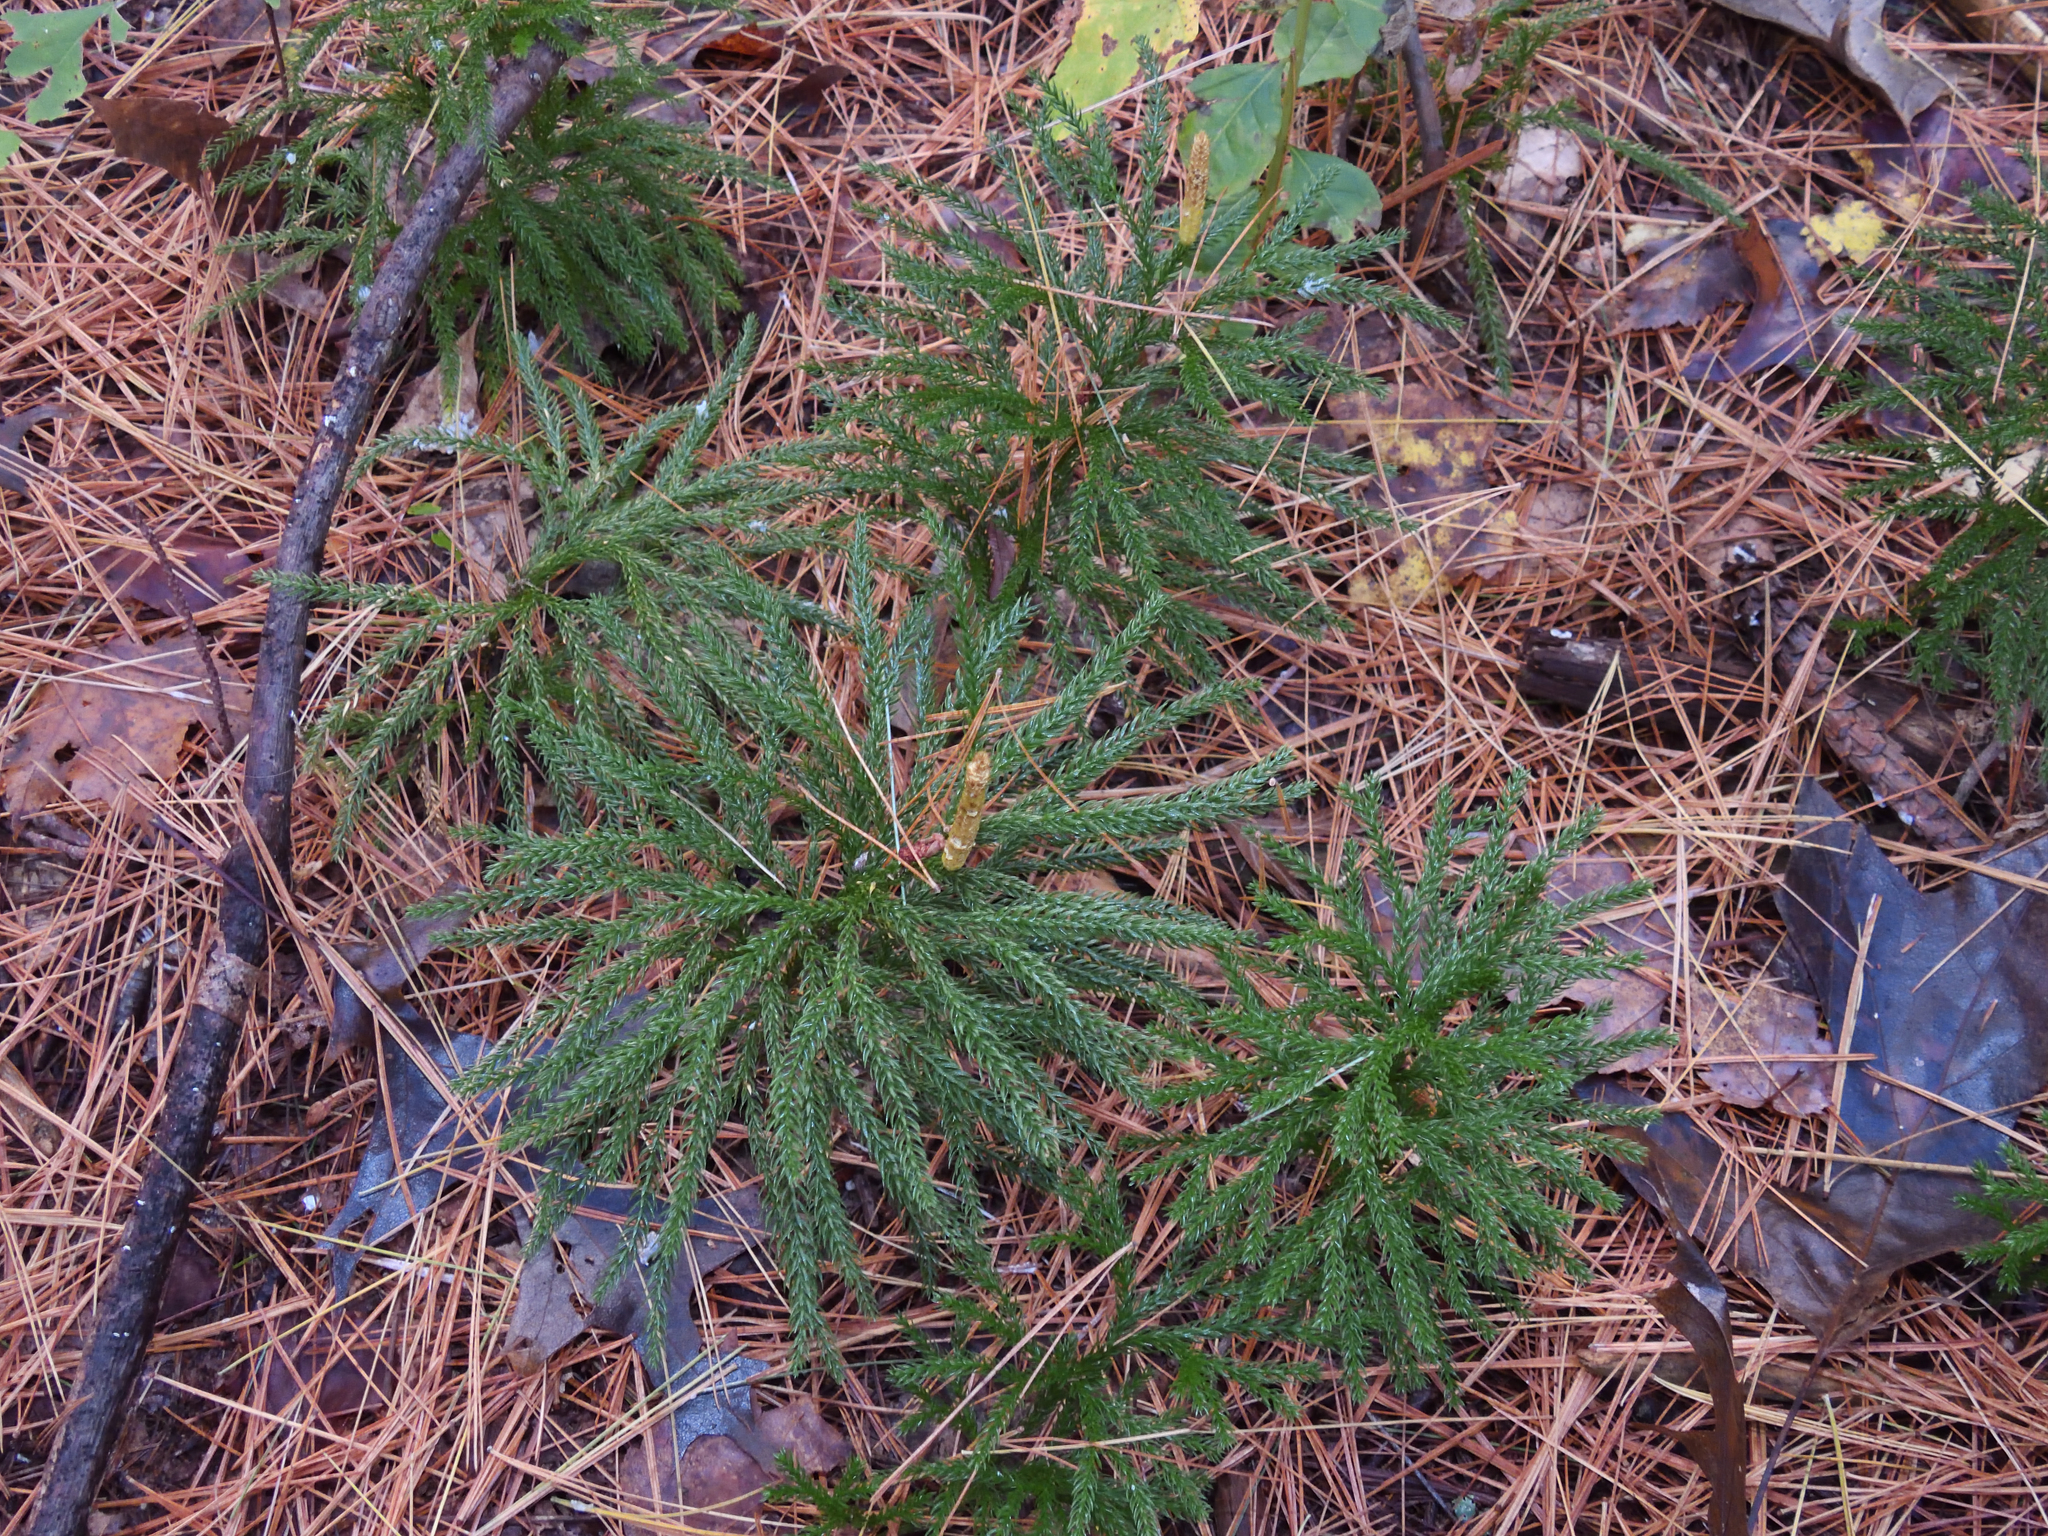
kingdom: Plantae
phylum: Tracheophyta
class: Lycopodiopsida
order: Lycopodiales
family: Lycopodiaceae
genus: Dendrolycopodium
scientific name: Dendrolycopodium obscurum
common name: Common ground-pine
